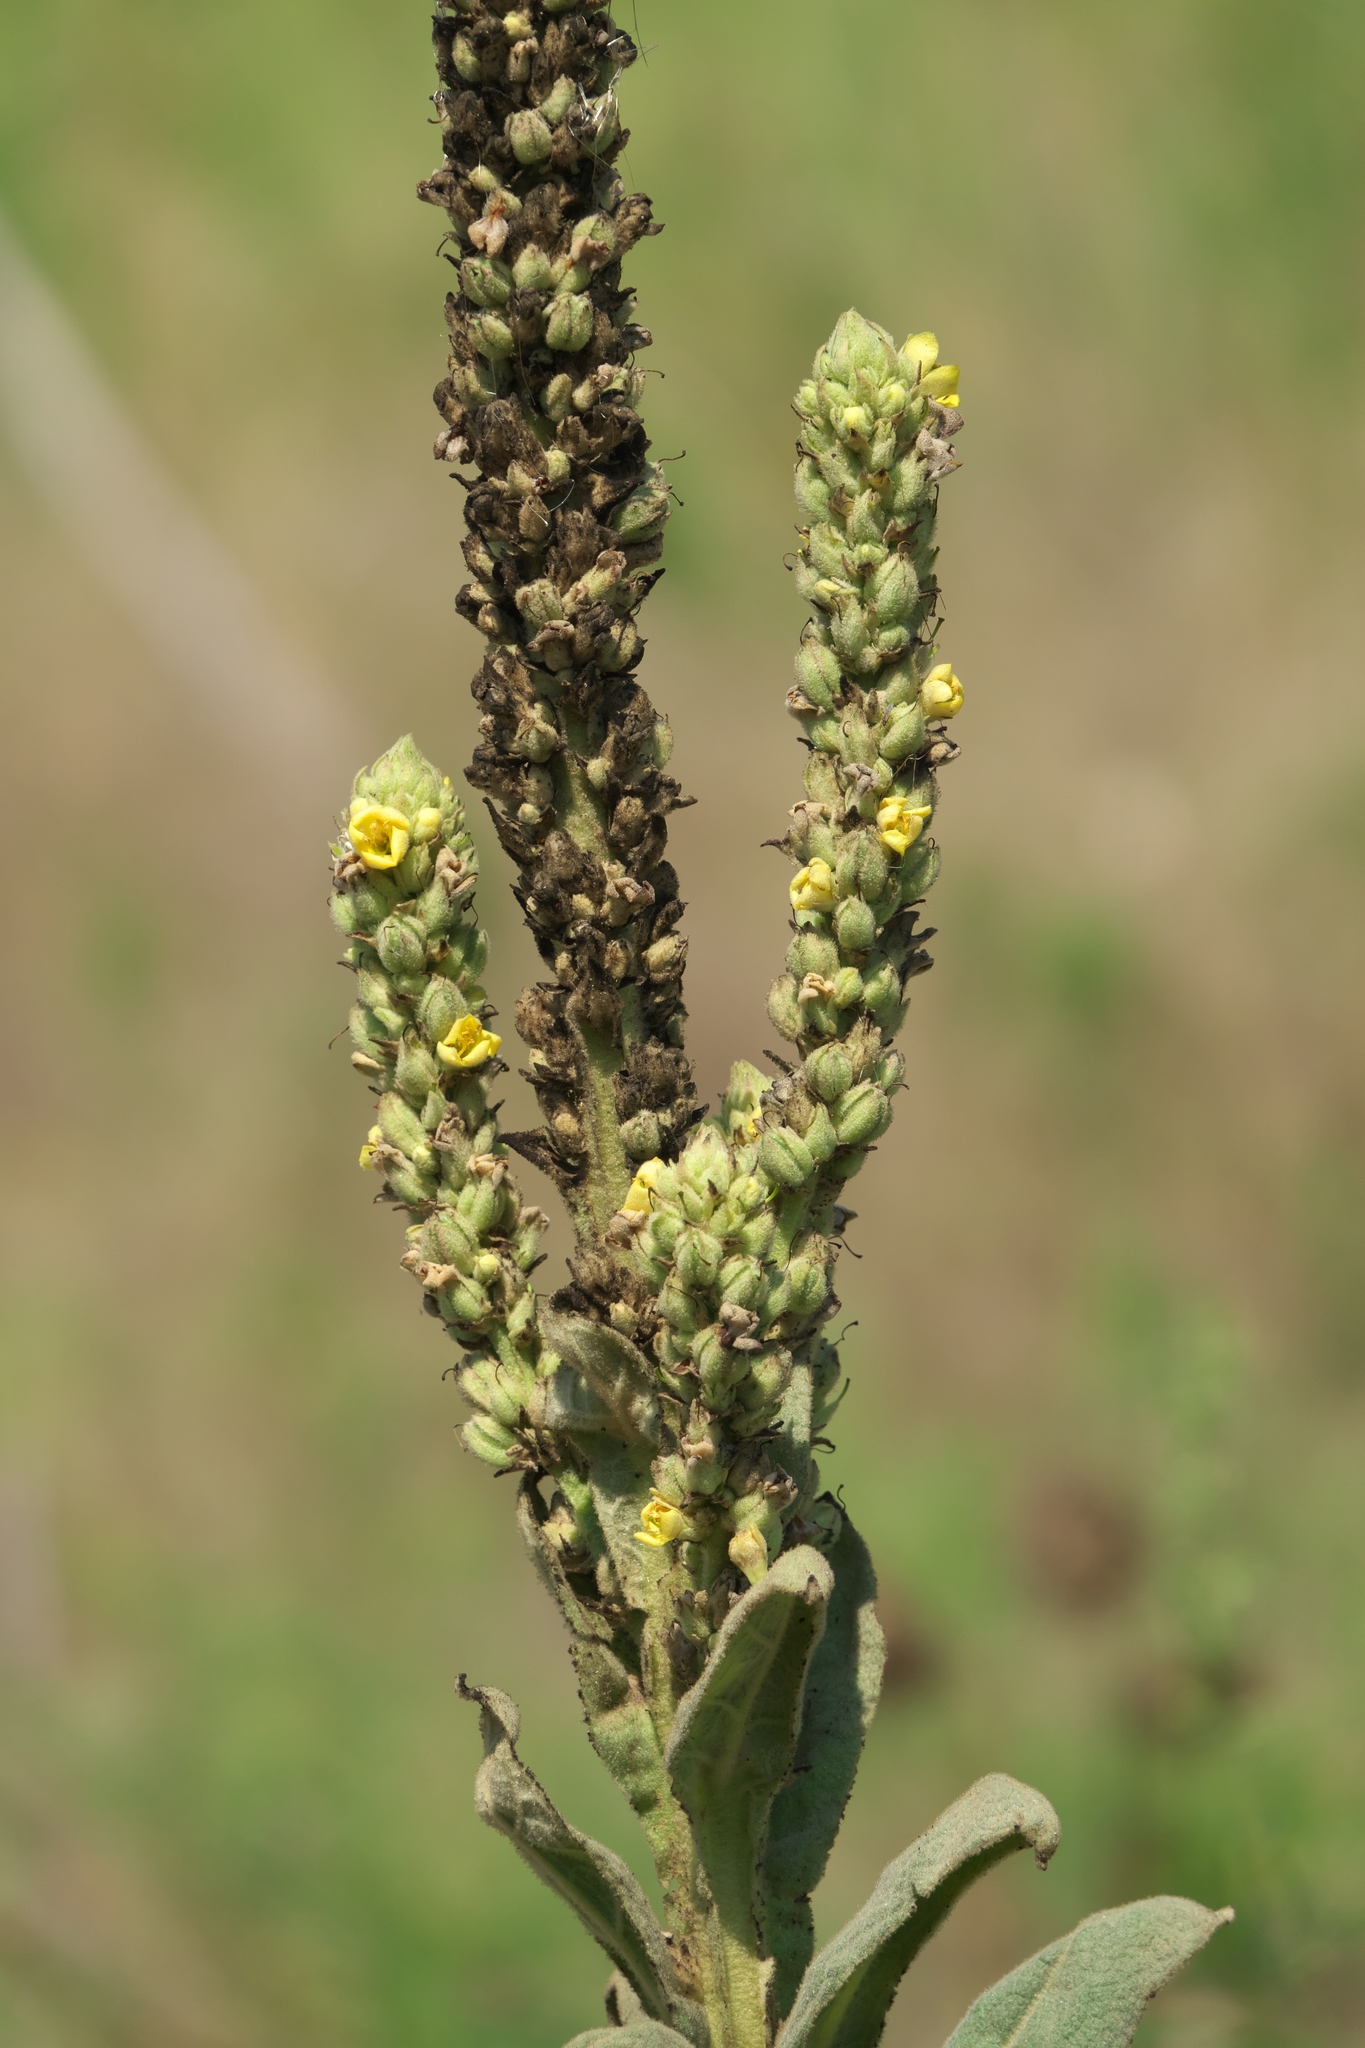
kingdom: Plantae
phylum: Tracheophyta
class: Magnoliopsida
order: Lamiales
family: Scrophulariaceae
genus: Verbascum
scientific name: Verbascum thapsus
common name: Common mullein
